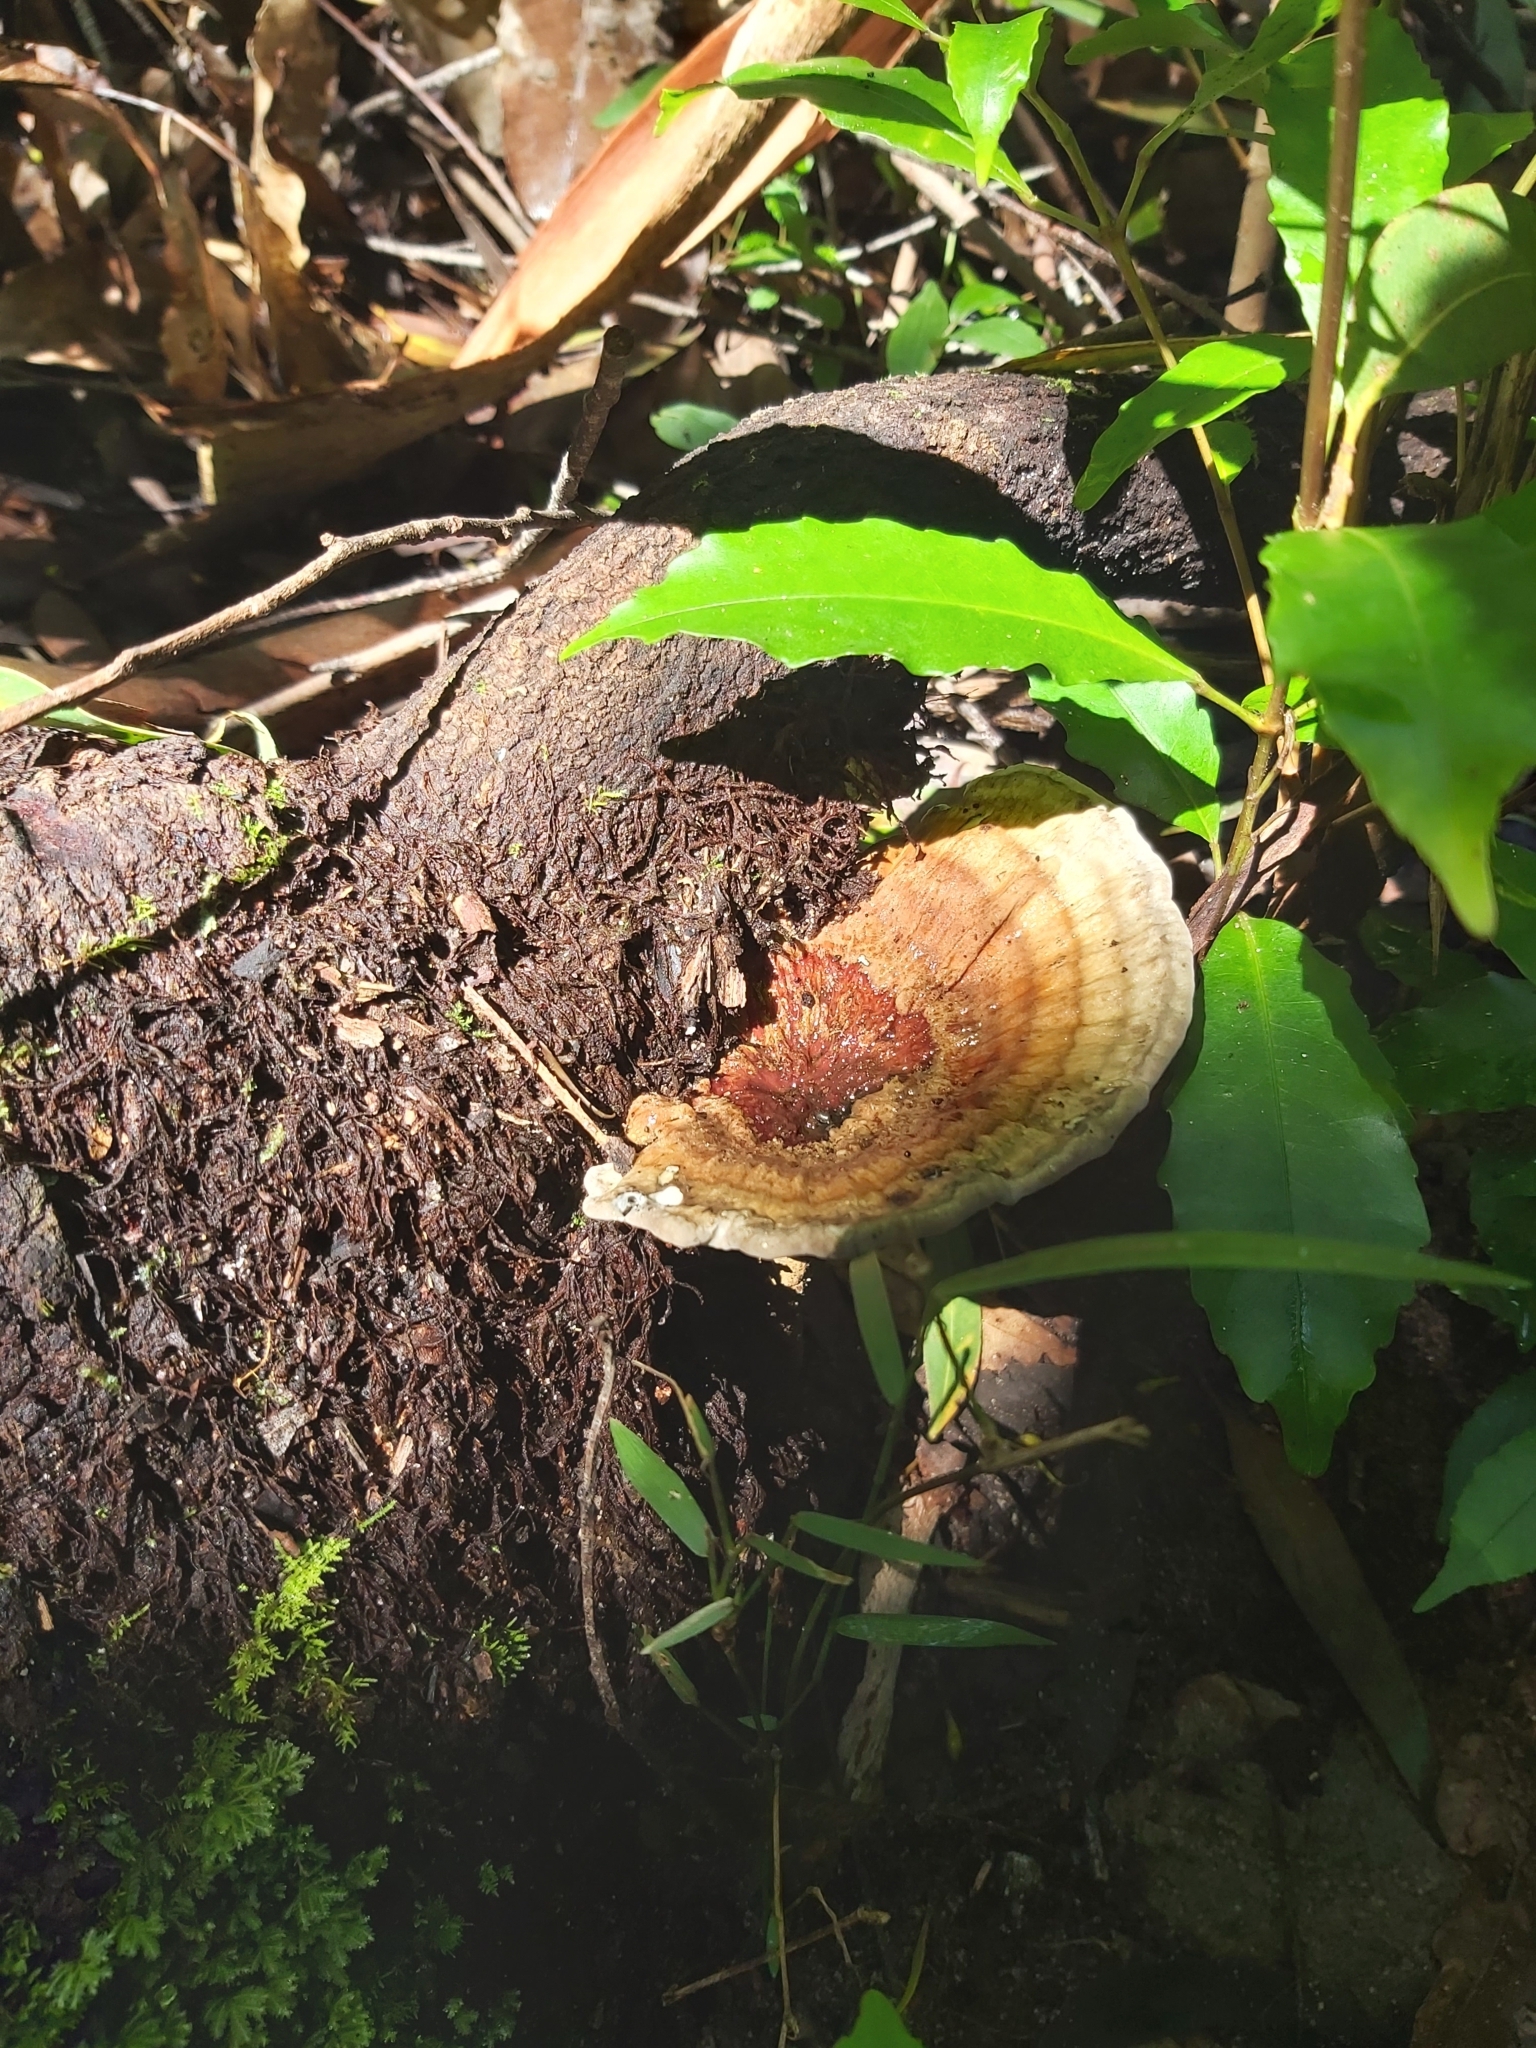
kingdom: Fungi
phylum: Basidiomycota
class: Agaricomycetes
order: Polyporales
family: Ganodermataceae
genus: Sanguinoderma
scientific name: Sanguinoderma rude
